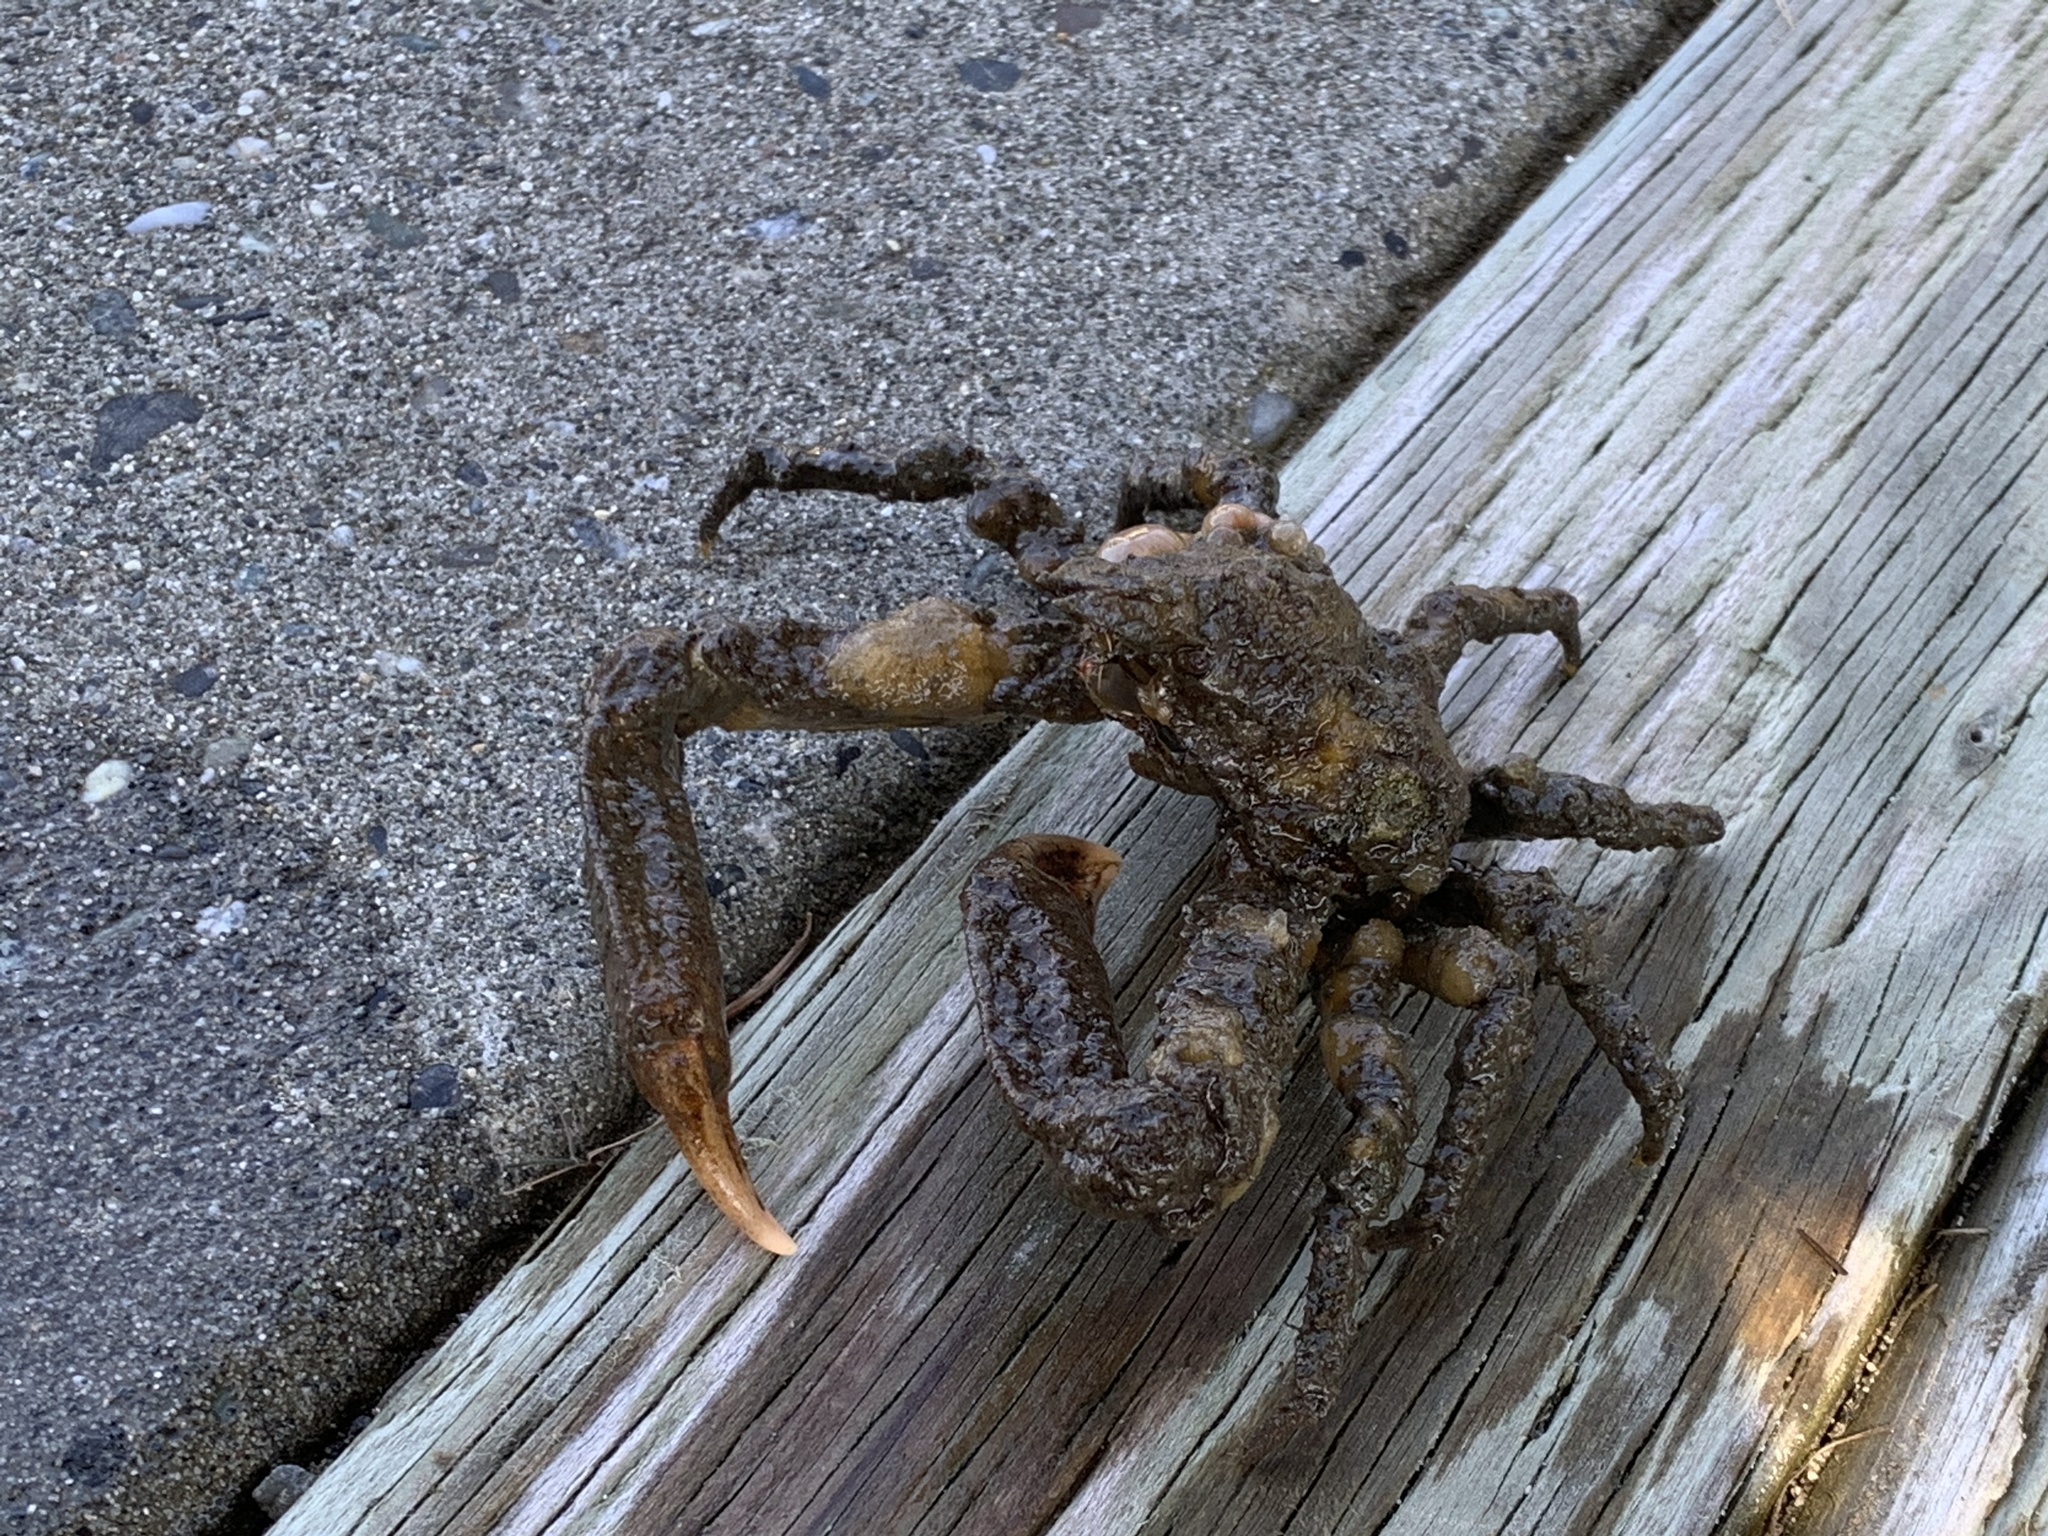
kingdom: Animalia
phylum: Arthropoda
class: Malacostraca
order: Decapoda
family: Epialtidae
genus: Scyra
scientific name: Scyra acutifrons
